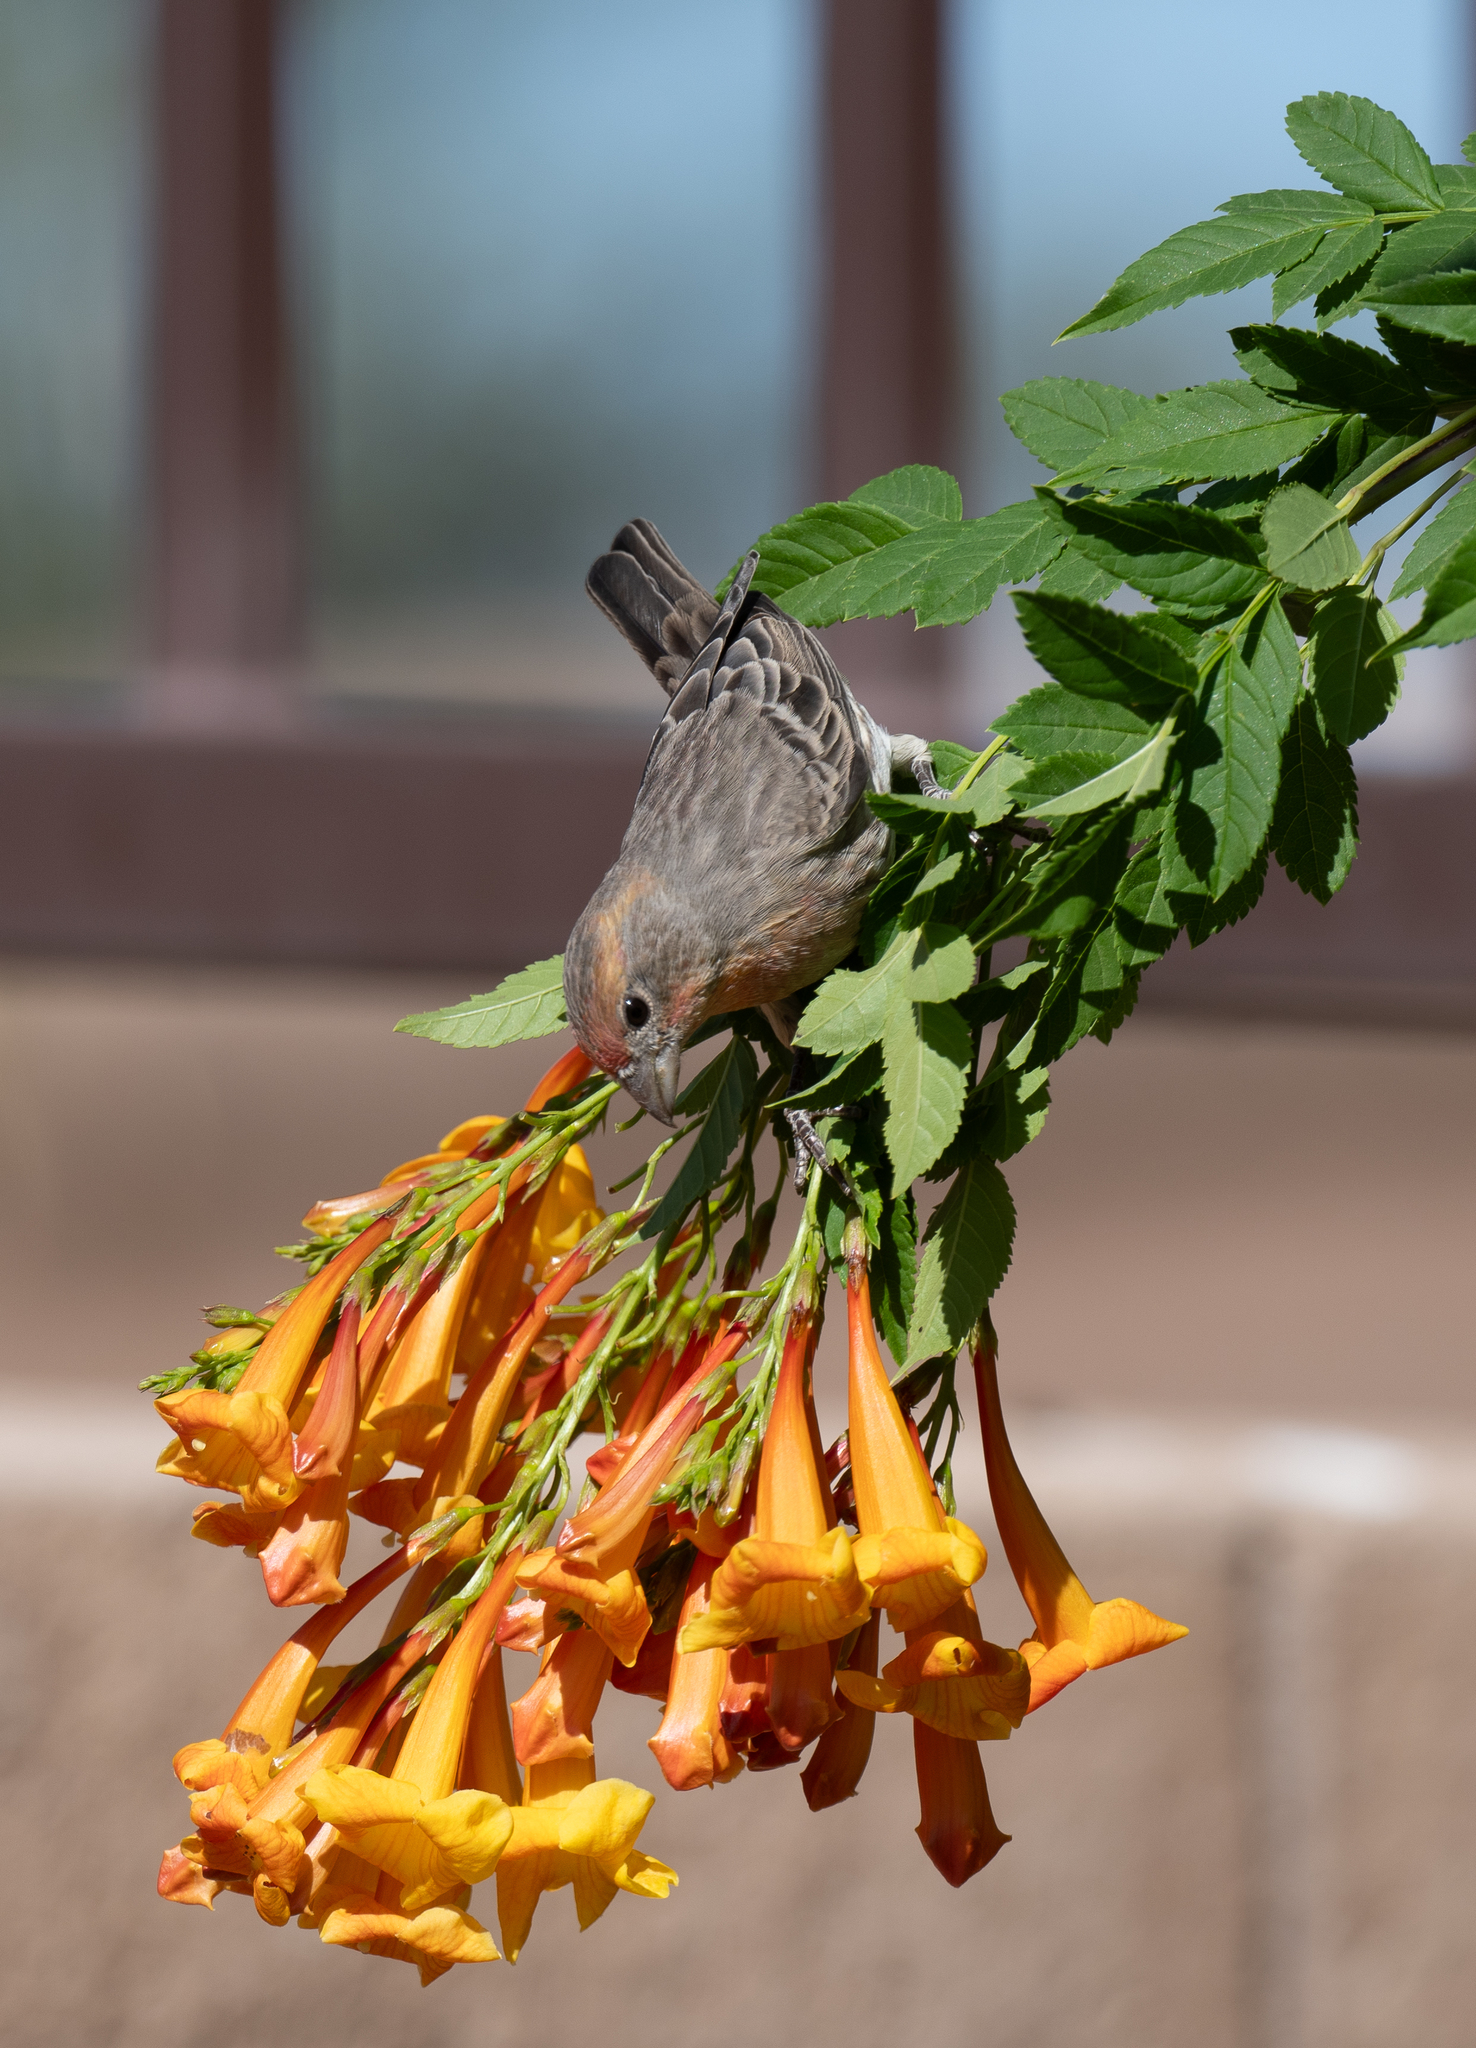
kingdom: Animalia
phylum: Chordata
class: Aves
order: Passeriformes
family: Fringillidae
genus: Haemorhous
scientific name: Haemorhous mexicanus
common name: House finch
